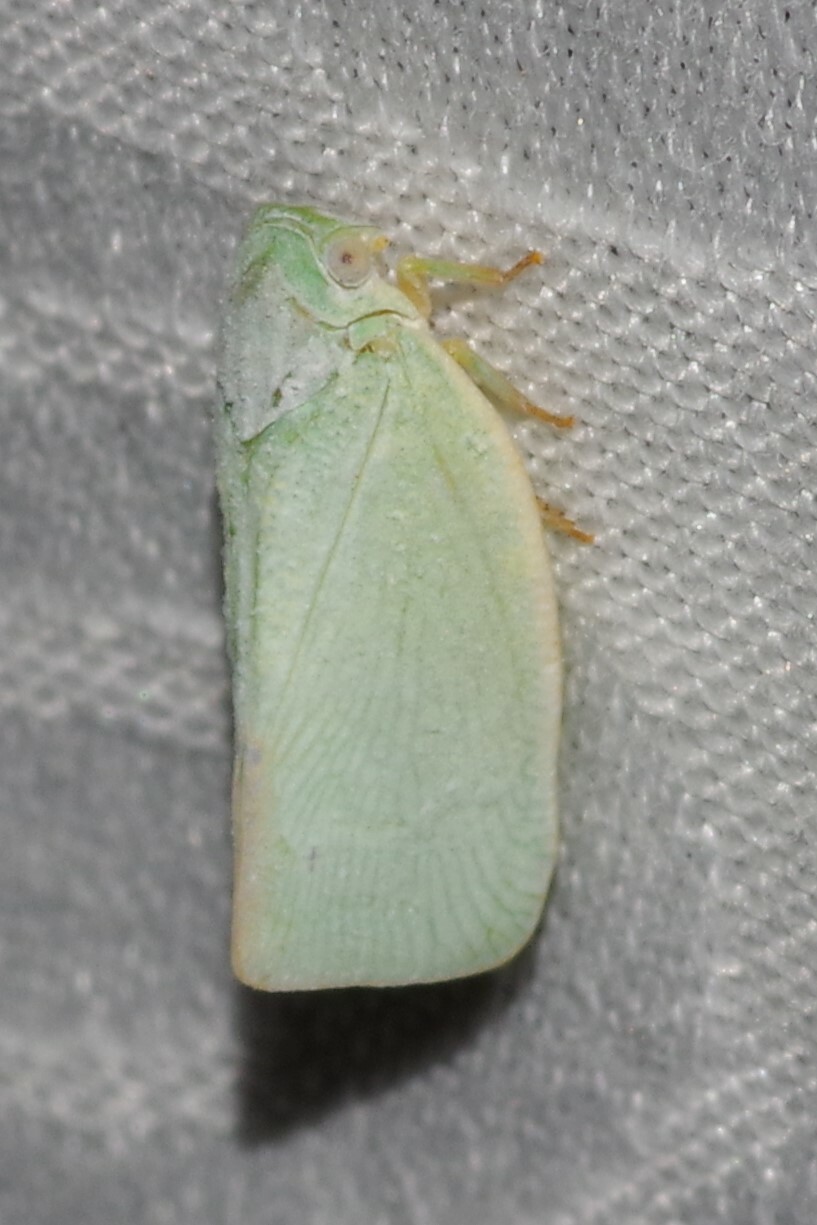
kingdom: Animalia
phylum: Arthropoda
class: Insecta
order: Hemiptera
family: Flatidae
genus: Flatormenis
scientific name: Flatormenis proxima
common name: Northern flatid planthopper
